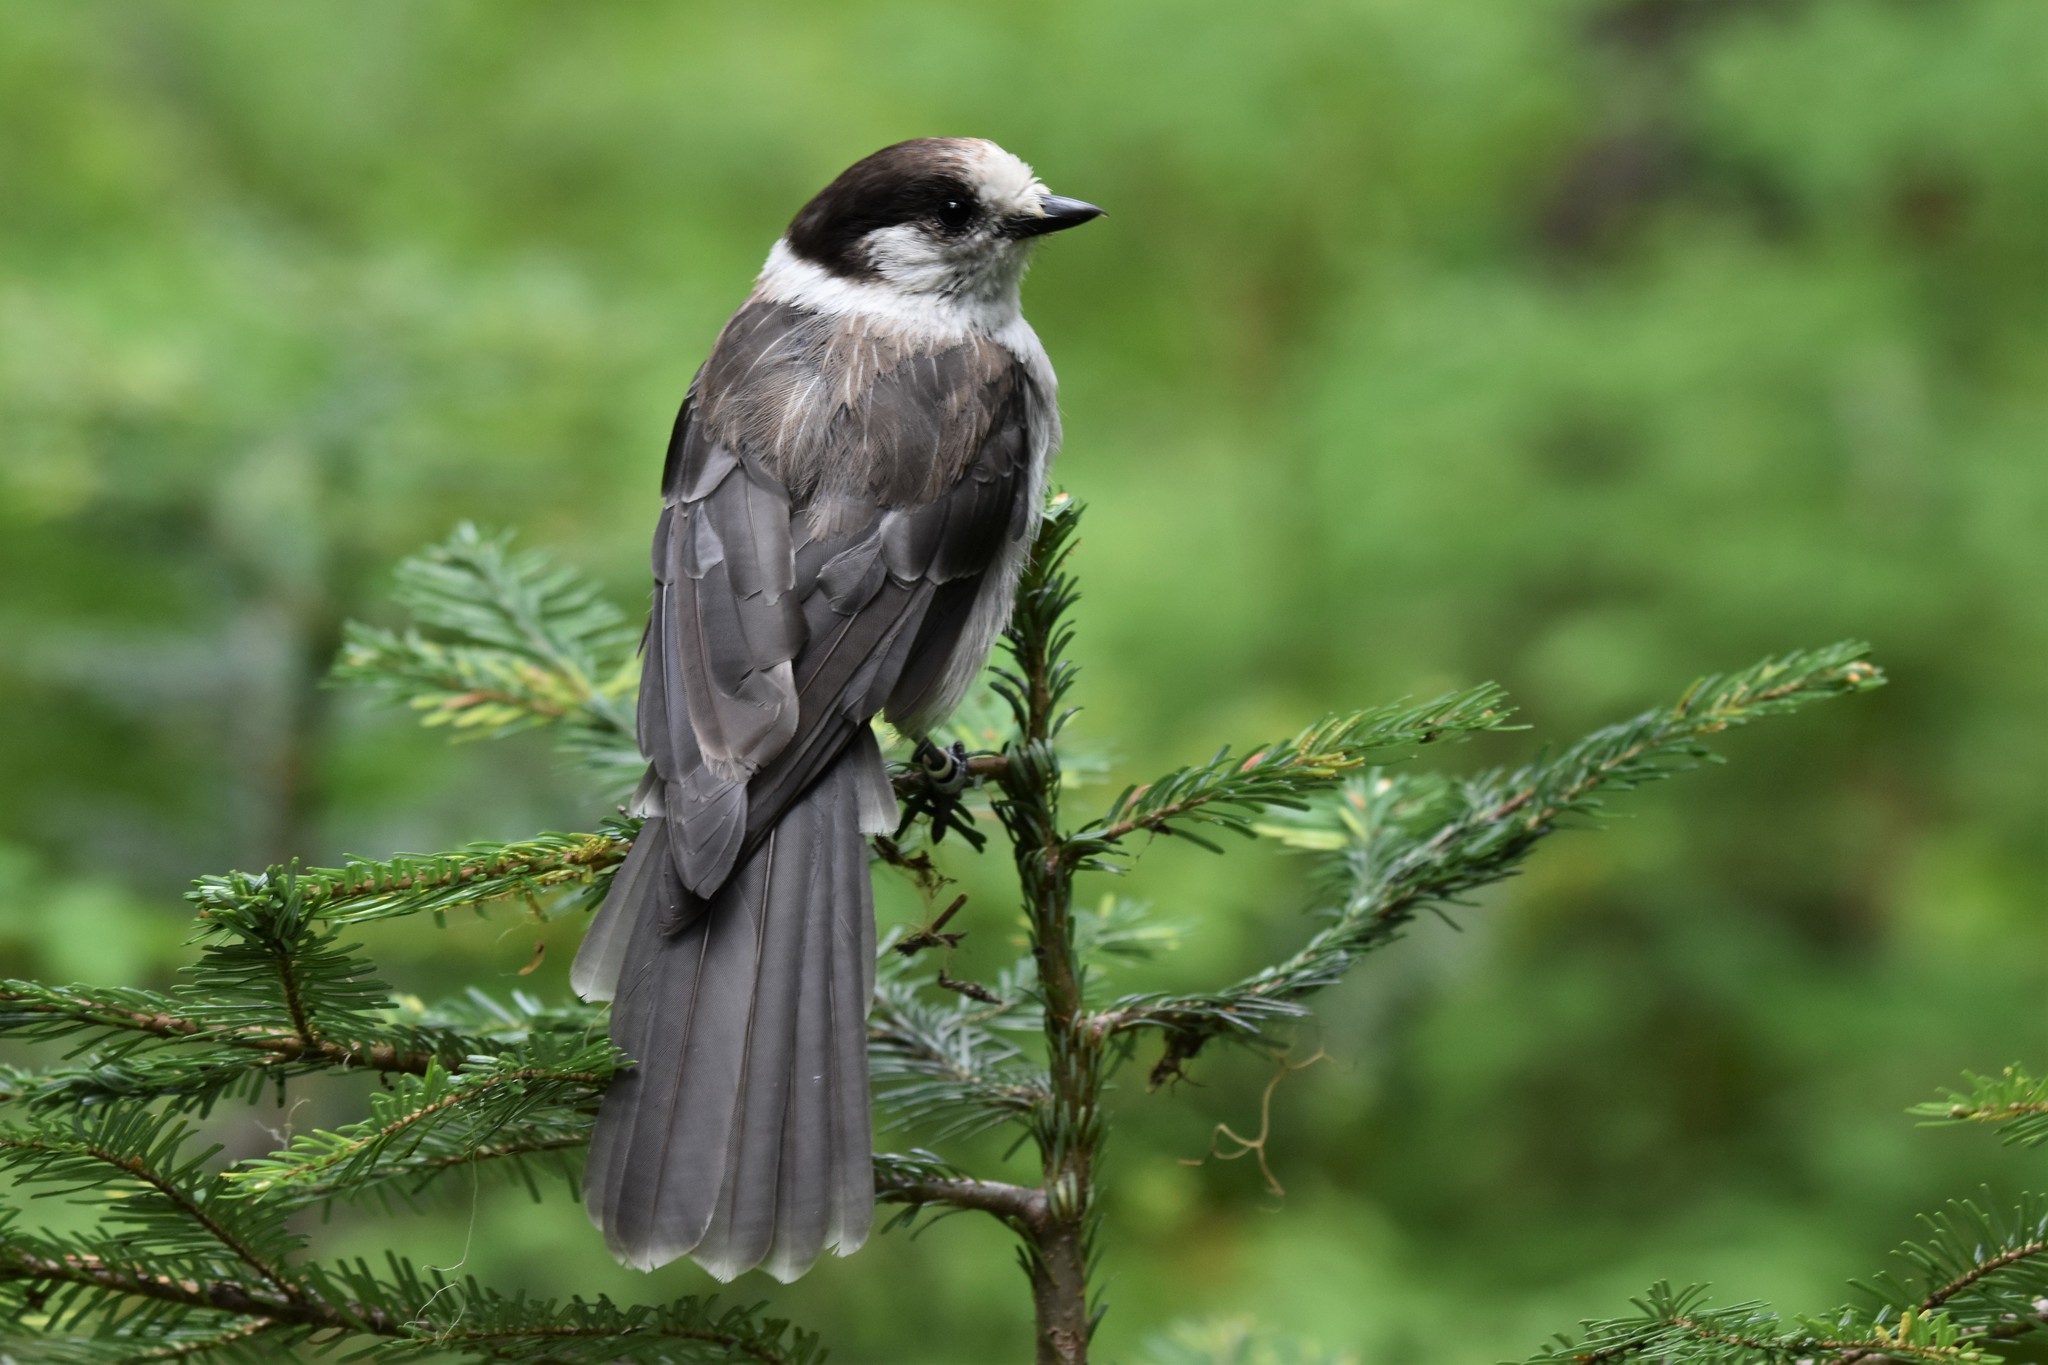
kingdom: Animalia
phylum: Chordata
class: Aves
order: Passeriformes
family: Corvidae
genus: Perisoreus
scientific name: Perisoreus canadensis
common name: Gray jay
